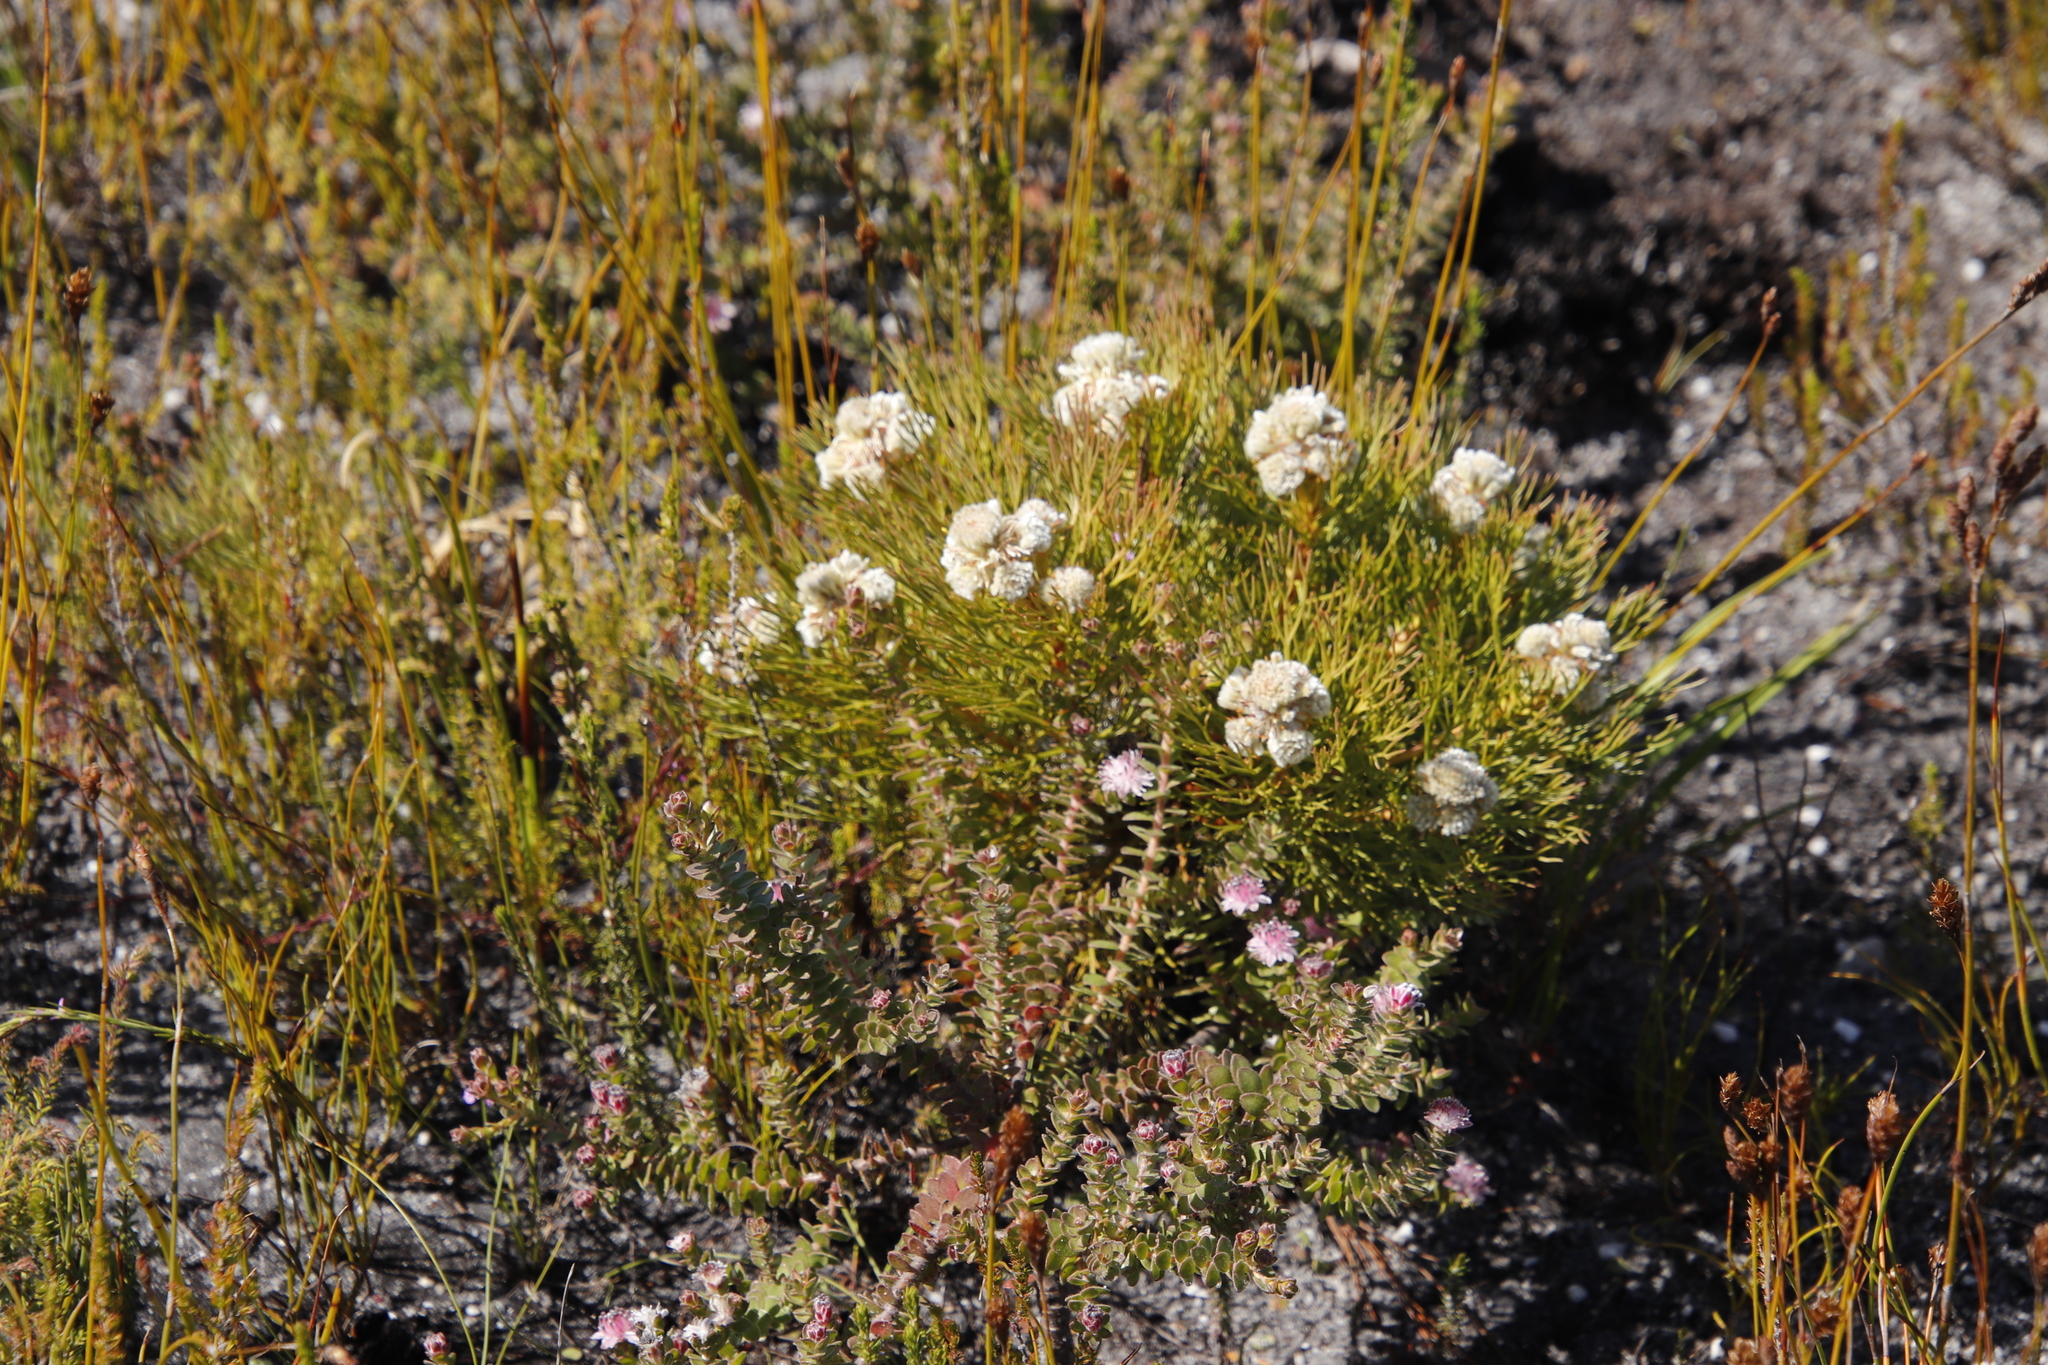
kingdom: Plantae
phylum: Tracheophyta
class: Magnoliopsida
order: Proteales
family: Proteaceae
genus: Serruria
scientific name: Serruria glomerata
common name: Cluster spiderhead
